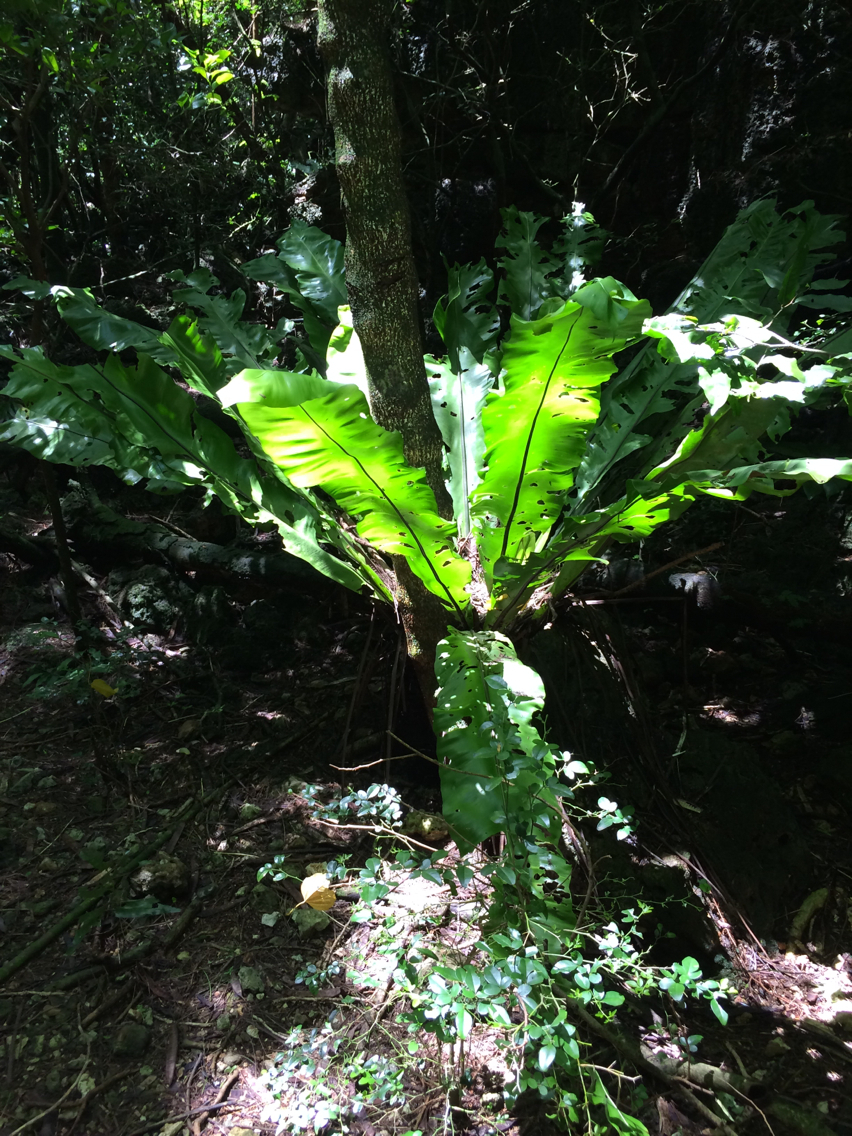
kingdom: Plantae
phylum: Tracheophyta
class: Polypodiopsida
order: Polypodiales
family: Aspleniaceae
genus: Asplenium
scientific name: Asplenium nidus
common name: Bird's-nest fern
